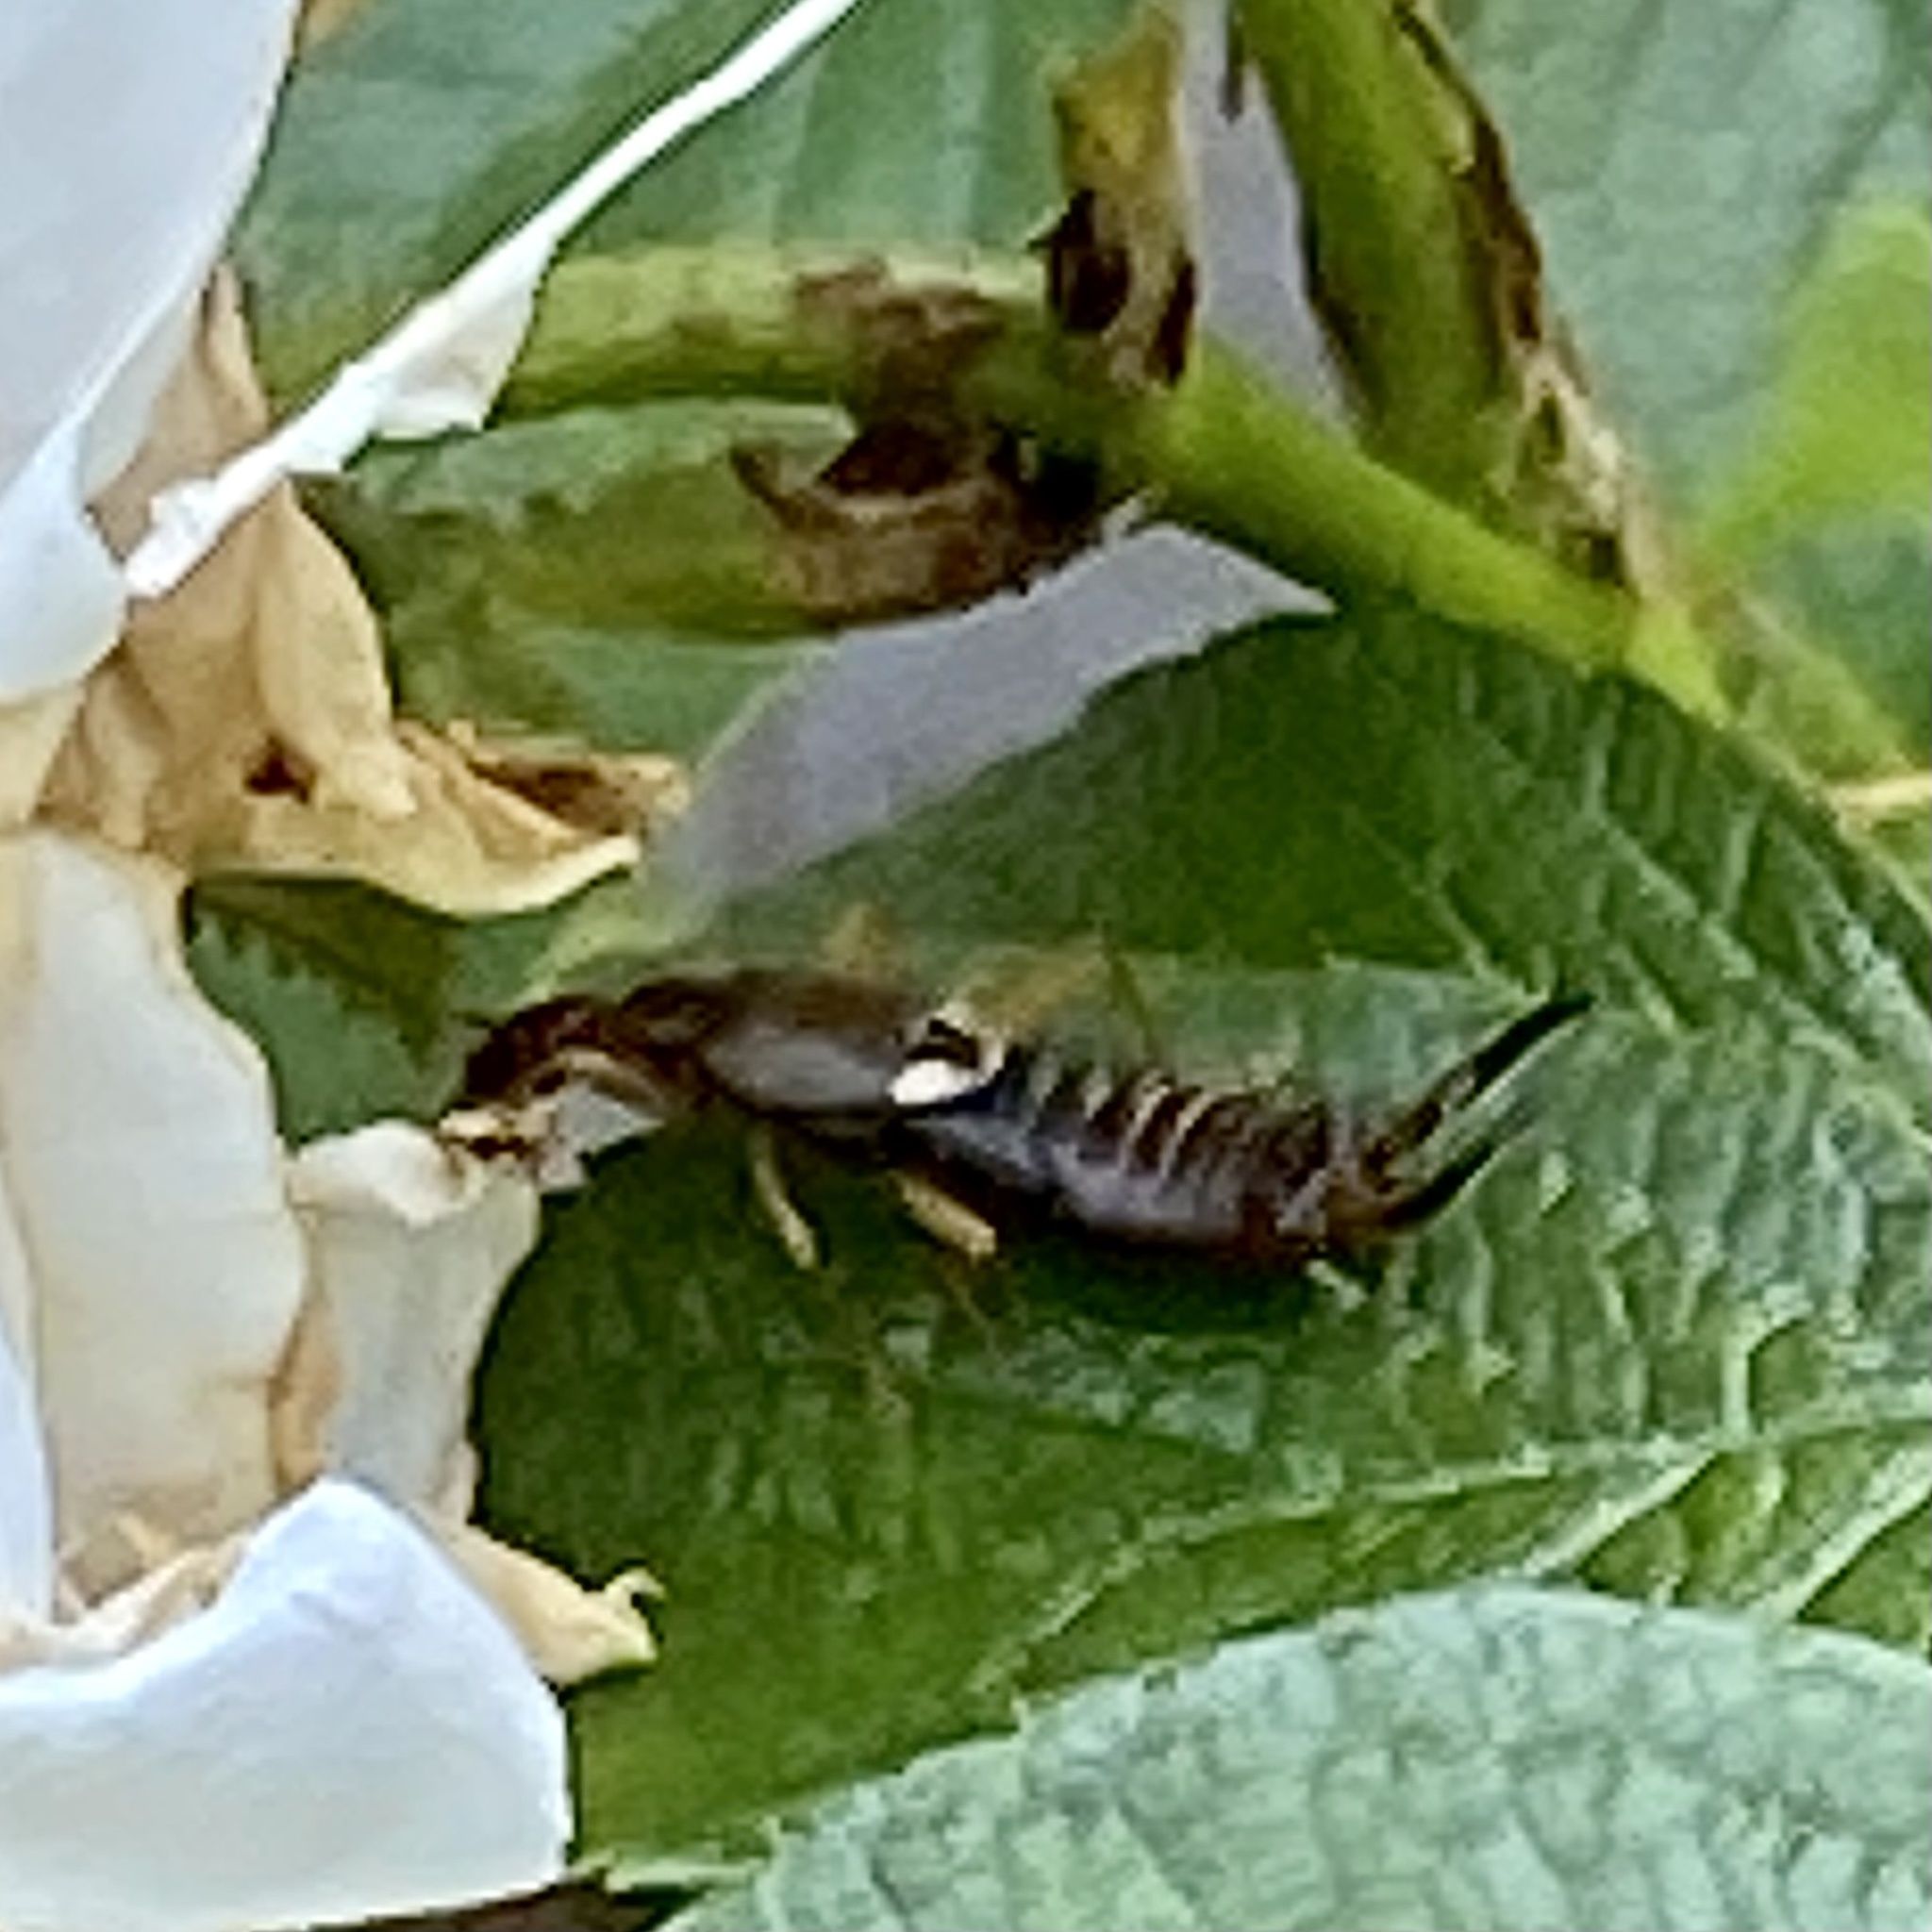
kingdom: Animalia
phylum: Arthropoda
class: Insecta
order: Dermaptera
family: Forficulidae
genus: Forficula
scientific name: Forficula
